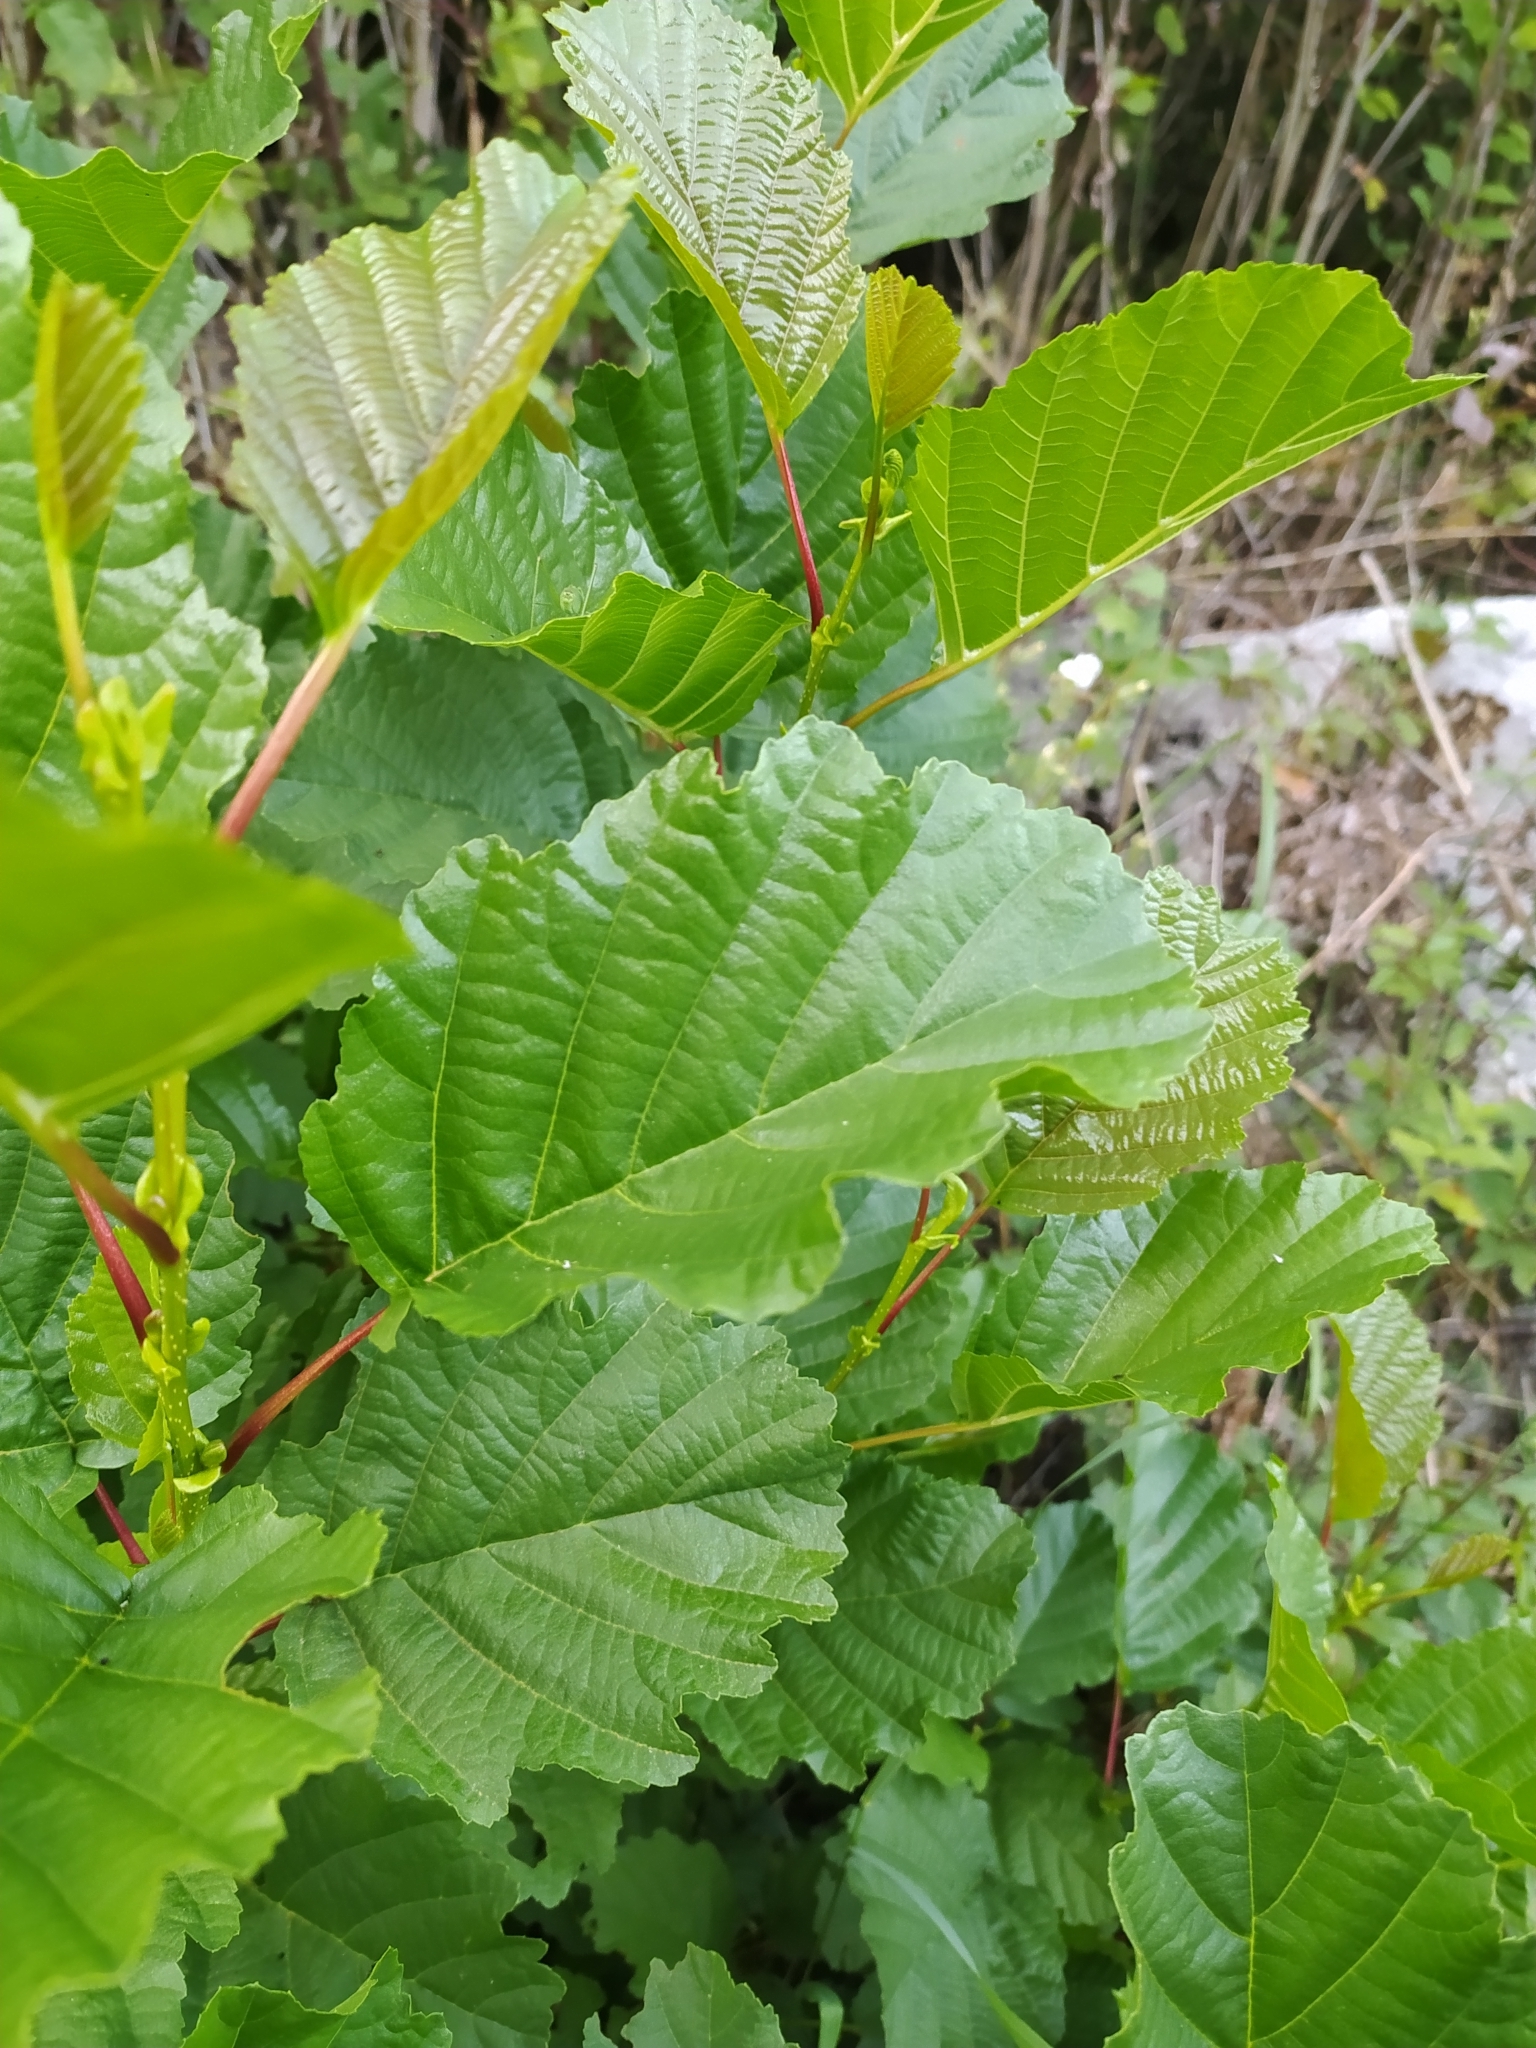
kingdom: Plantae
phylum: Tracheophyta
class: Magnoliopsida
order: Fagales
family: Betulaceae
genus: Alnus
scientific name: Alnus glutinosa
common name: Black alder
